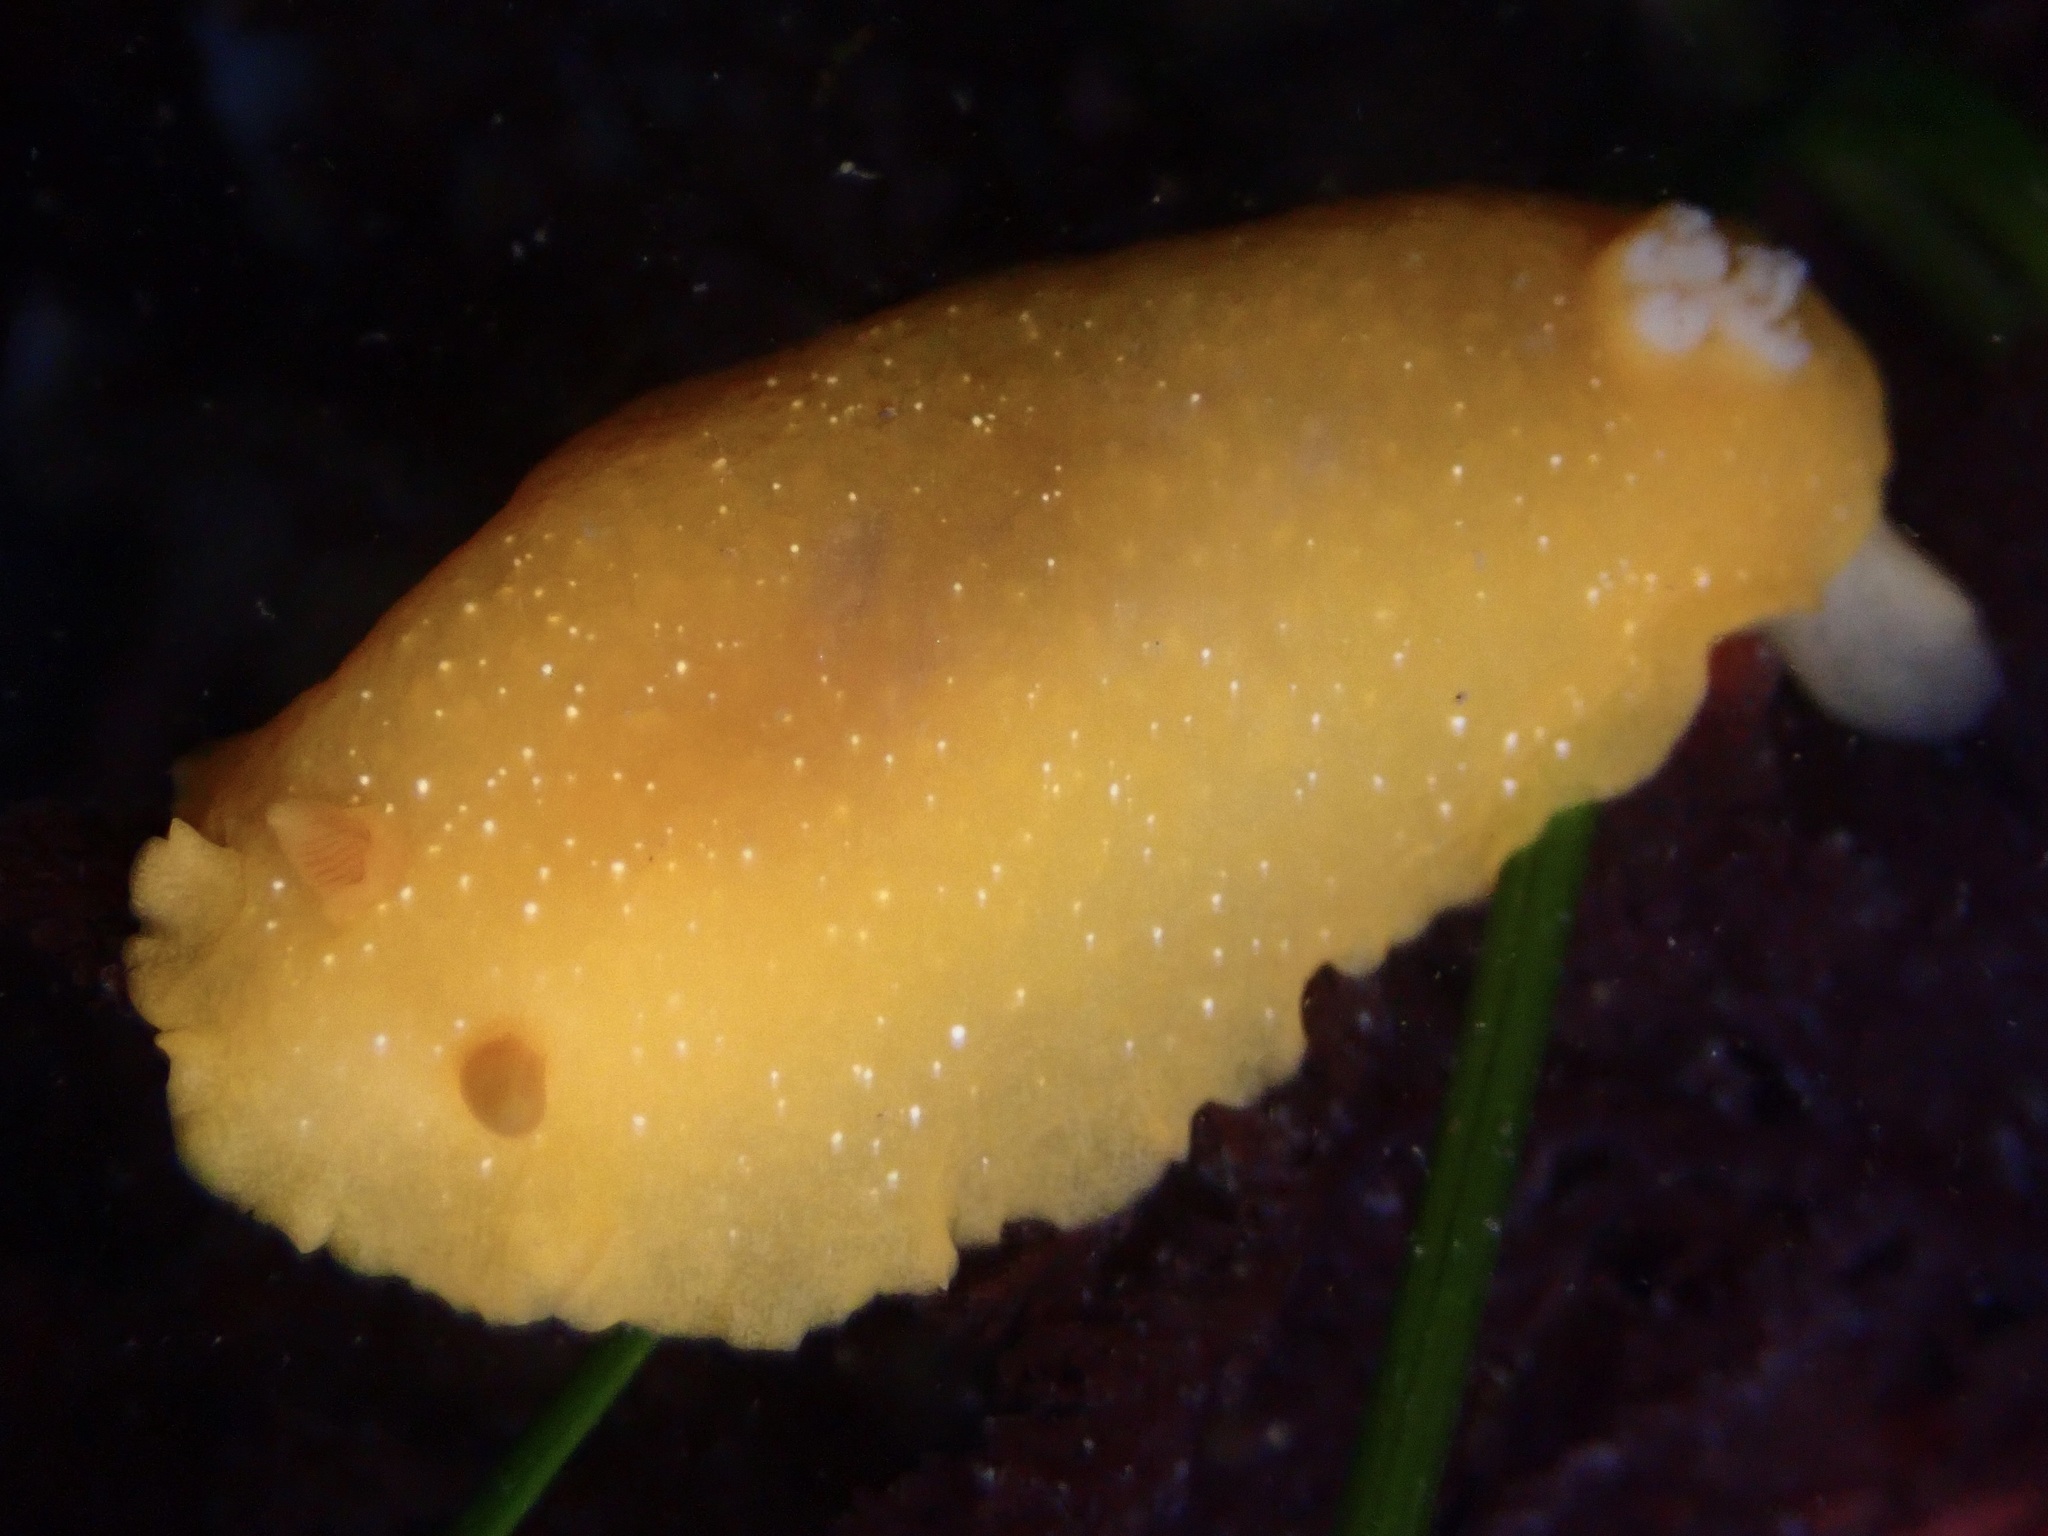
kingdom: Animalia
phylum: Mollusca
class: Gastropoda
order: Nudibranchia
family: Dendrodorididae
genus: Doriopsilla
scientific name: Doriopsilla fulva
